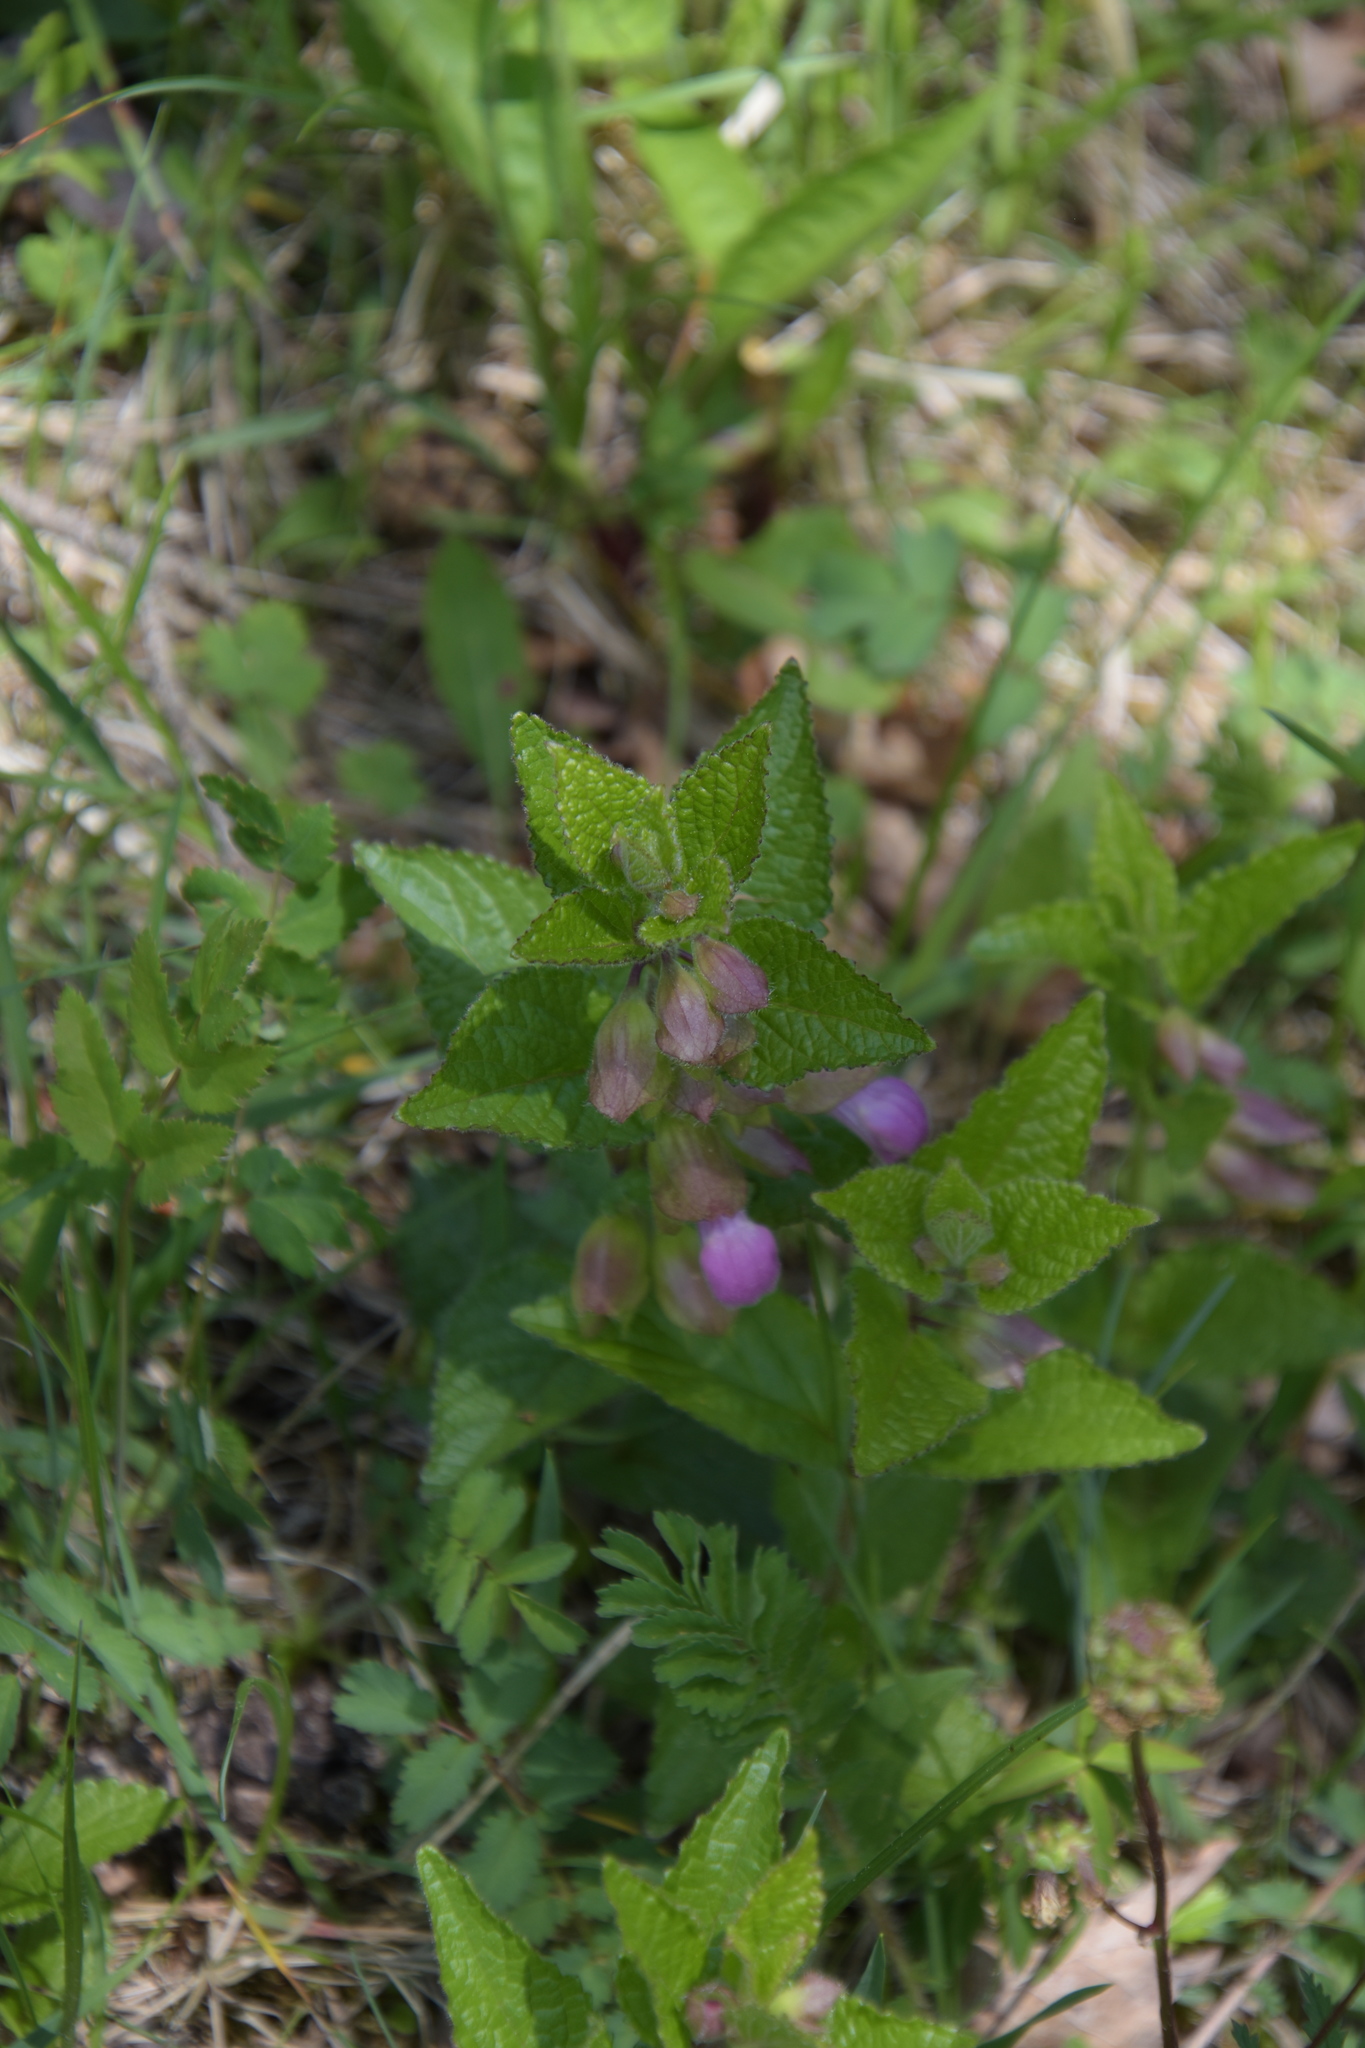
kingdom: Plantae
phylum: Tracheophyta
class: Magnoliopsida
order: Lamiales
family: Lamiaceae
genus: Melittis
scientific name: Melittis melissophyllum
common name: Bastard balm
